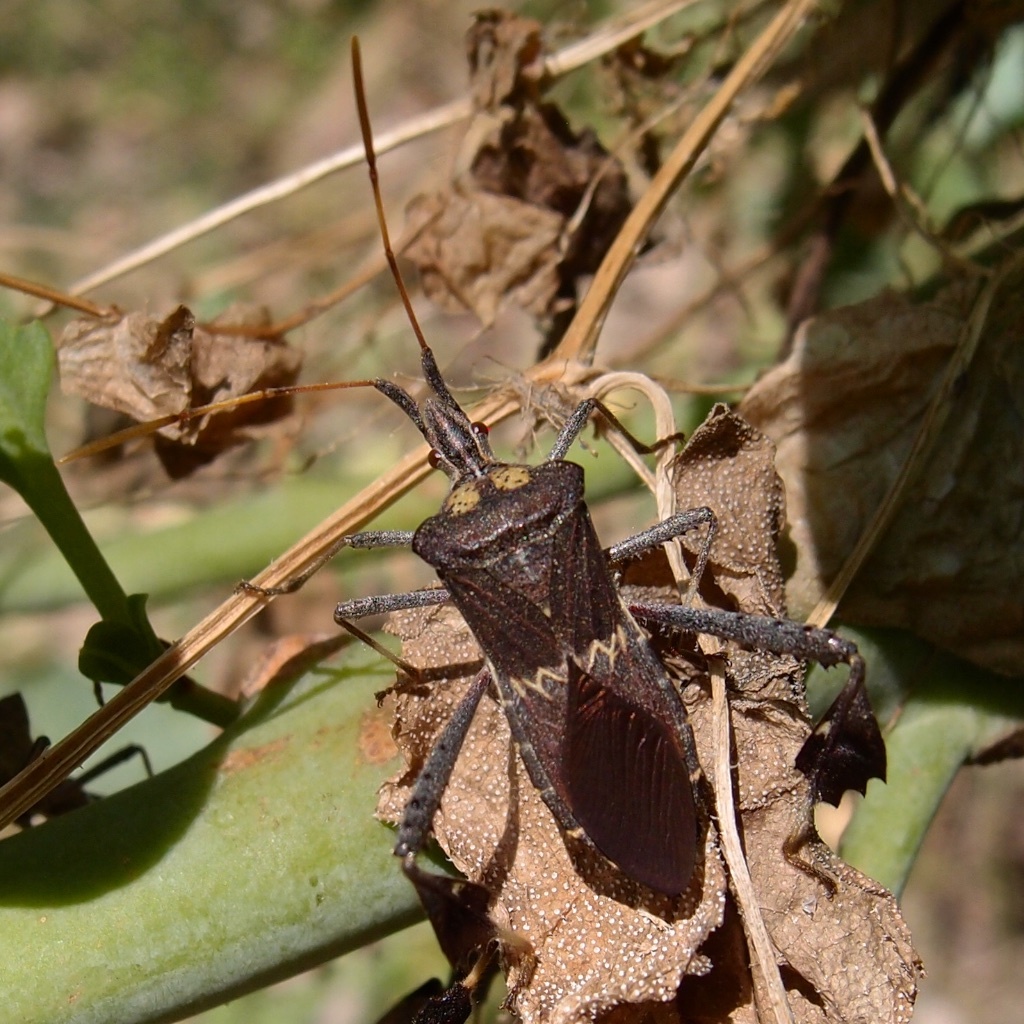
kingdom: Animalia
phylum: Arthropoda
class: Insecta
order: Hemiptera
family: Coreidae
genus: Leptoglossus
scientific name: Leptoglossus zonatus
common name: Large-legged bug
